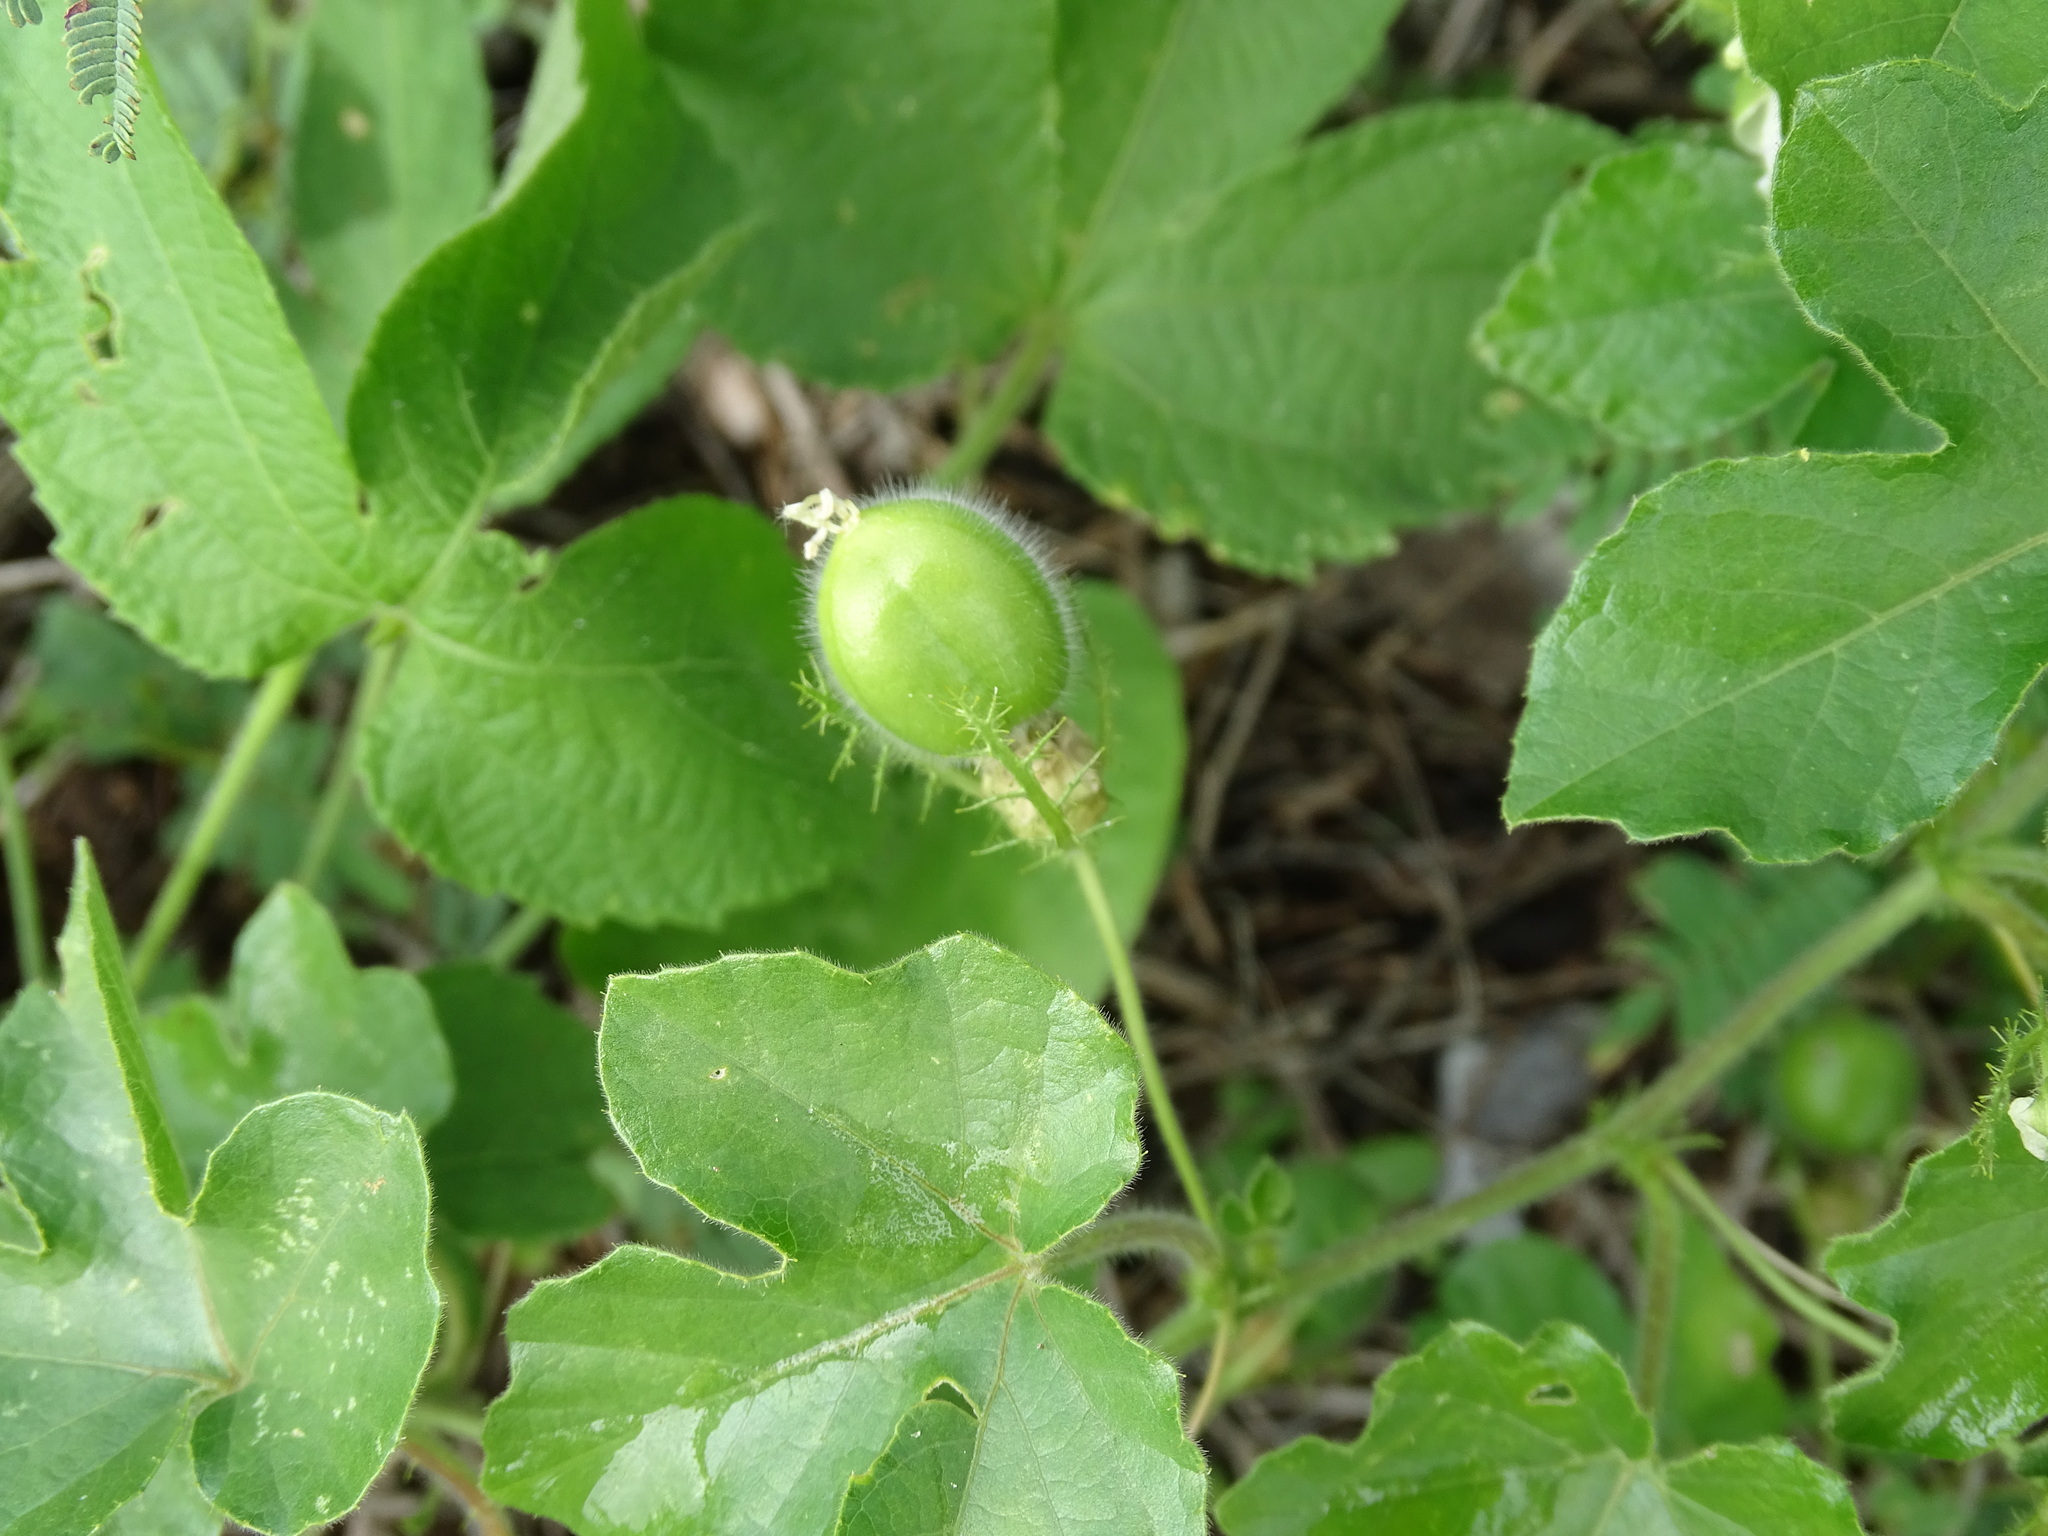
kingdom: Plantae
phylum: Tracheophyta
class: Magnoliopsida
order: Malpighiales
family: Passifloraceae
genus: Passiflora
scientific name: Passiflora foetida
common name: Fetid passionflower
